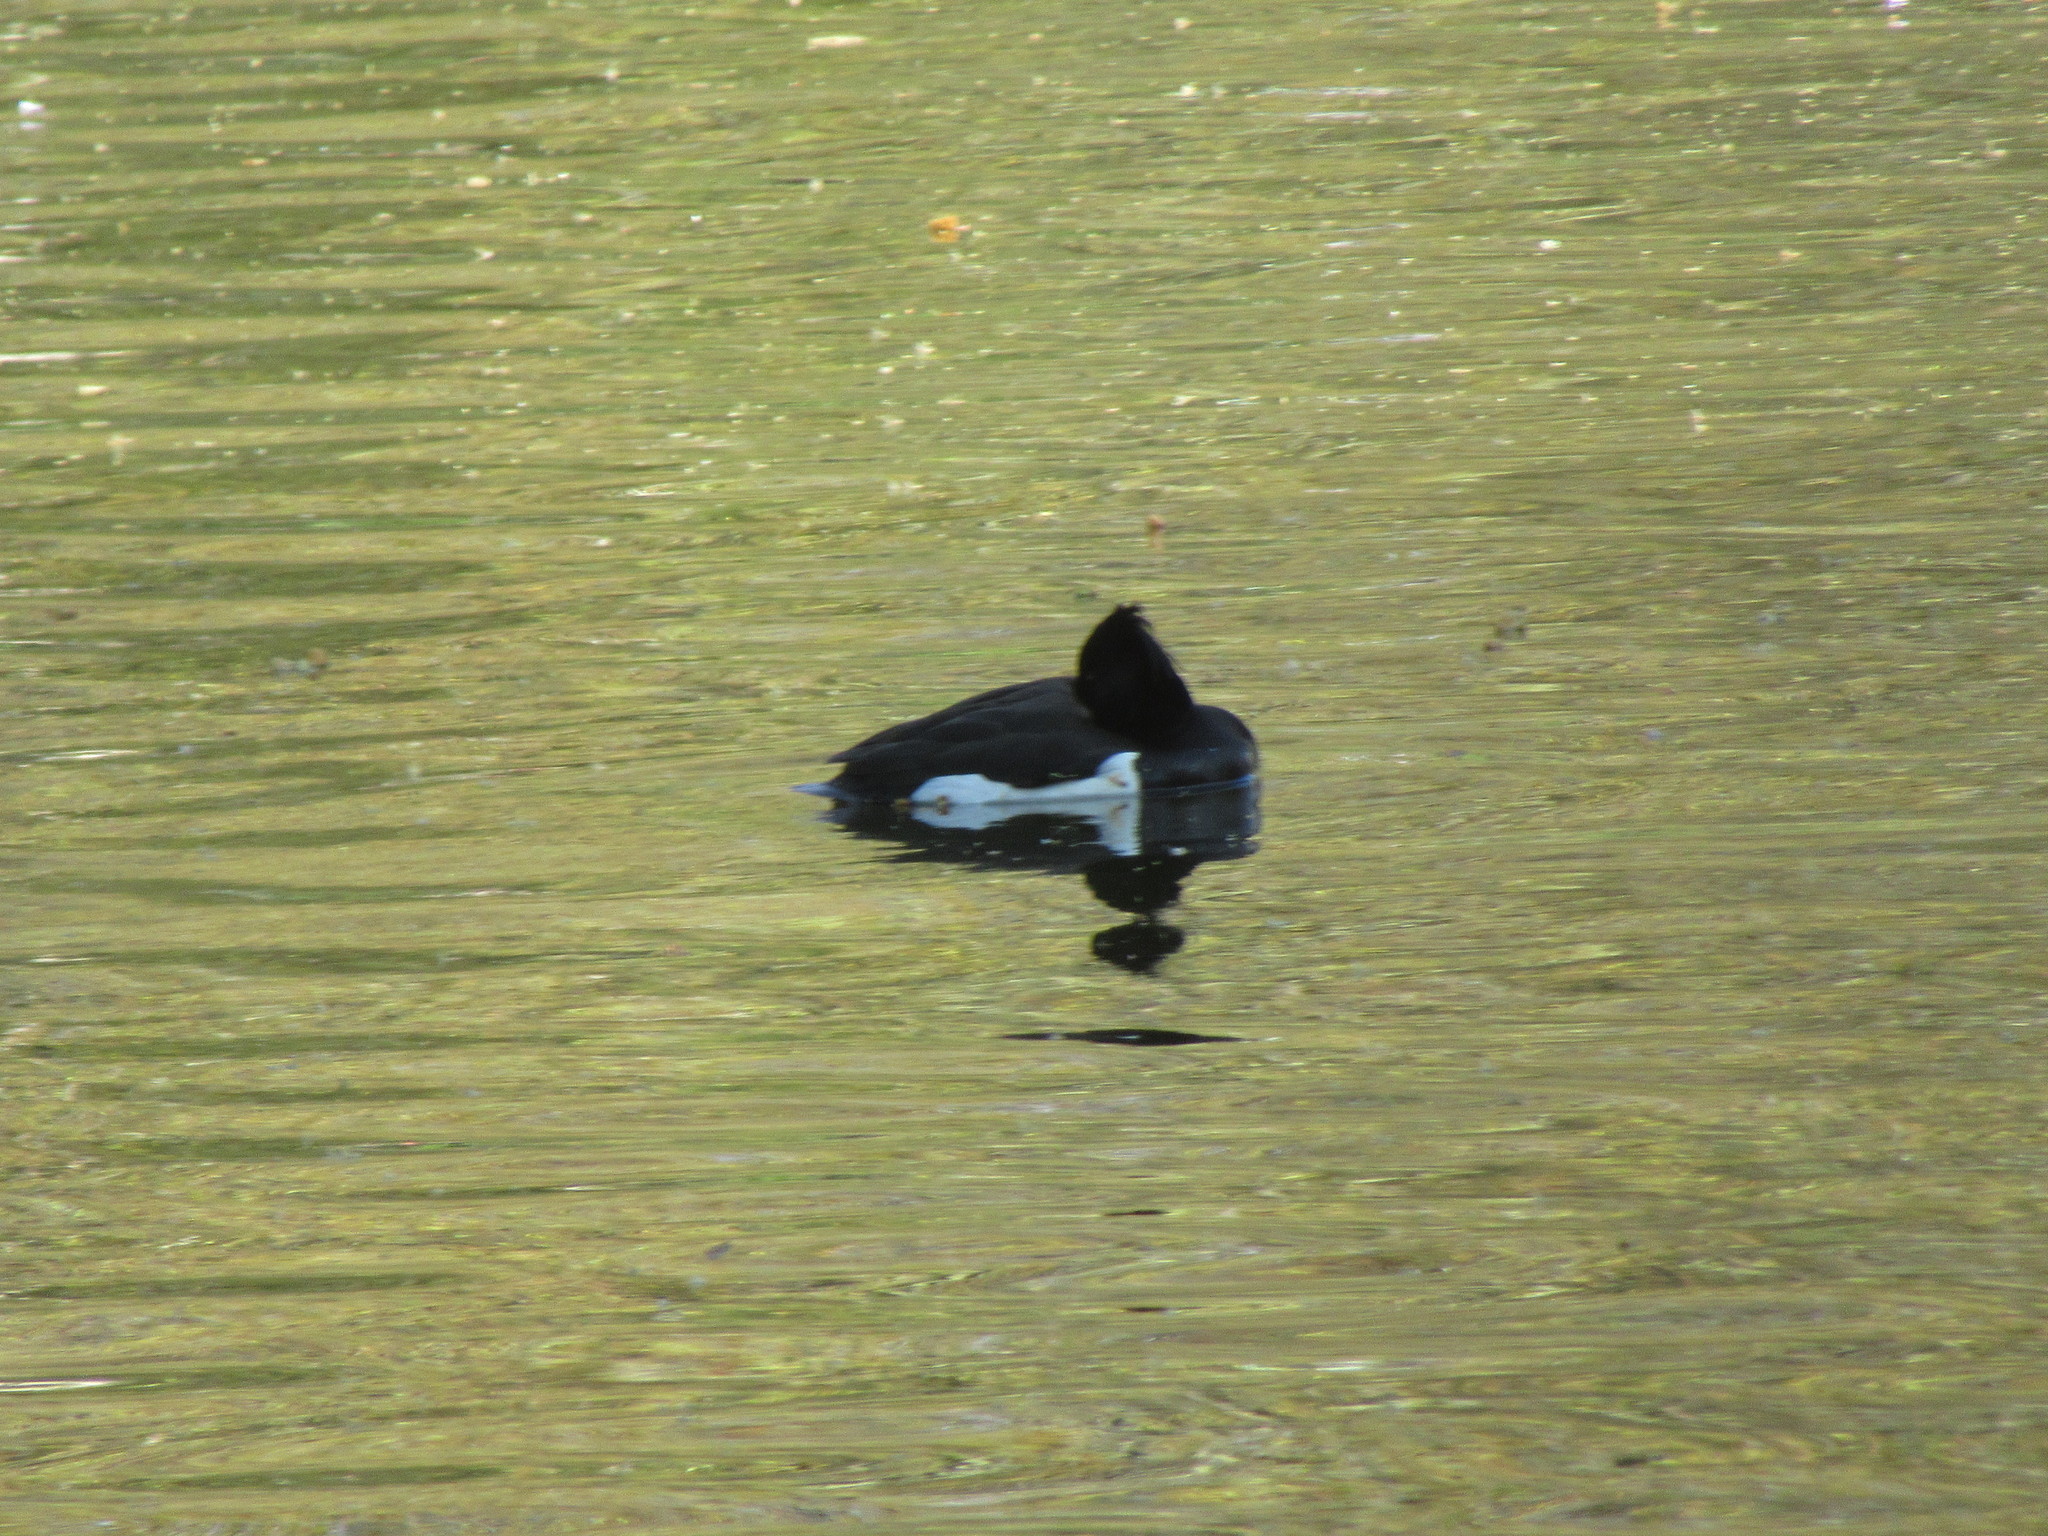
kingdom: Animalia
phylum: Chordata
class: Aves
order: Anseriformes
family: Anatidae
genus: Aythya
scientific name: Aythya fuligula
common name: Tufted duck
